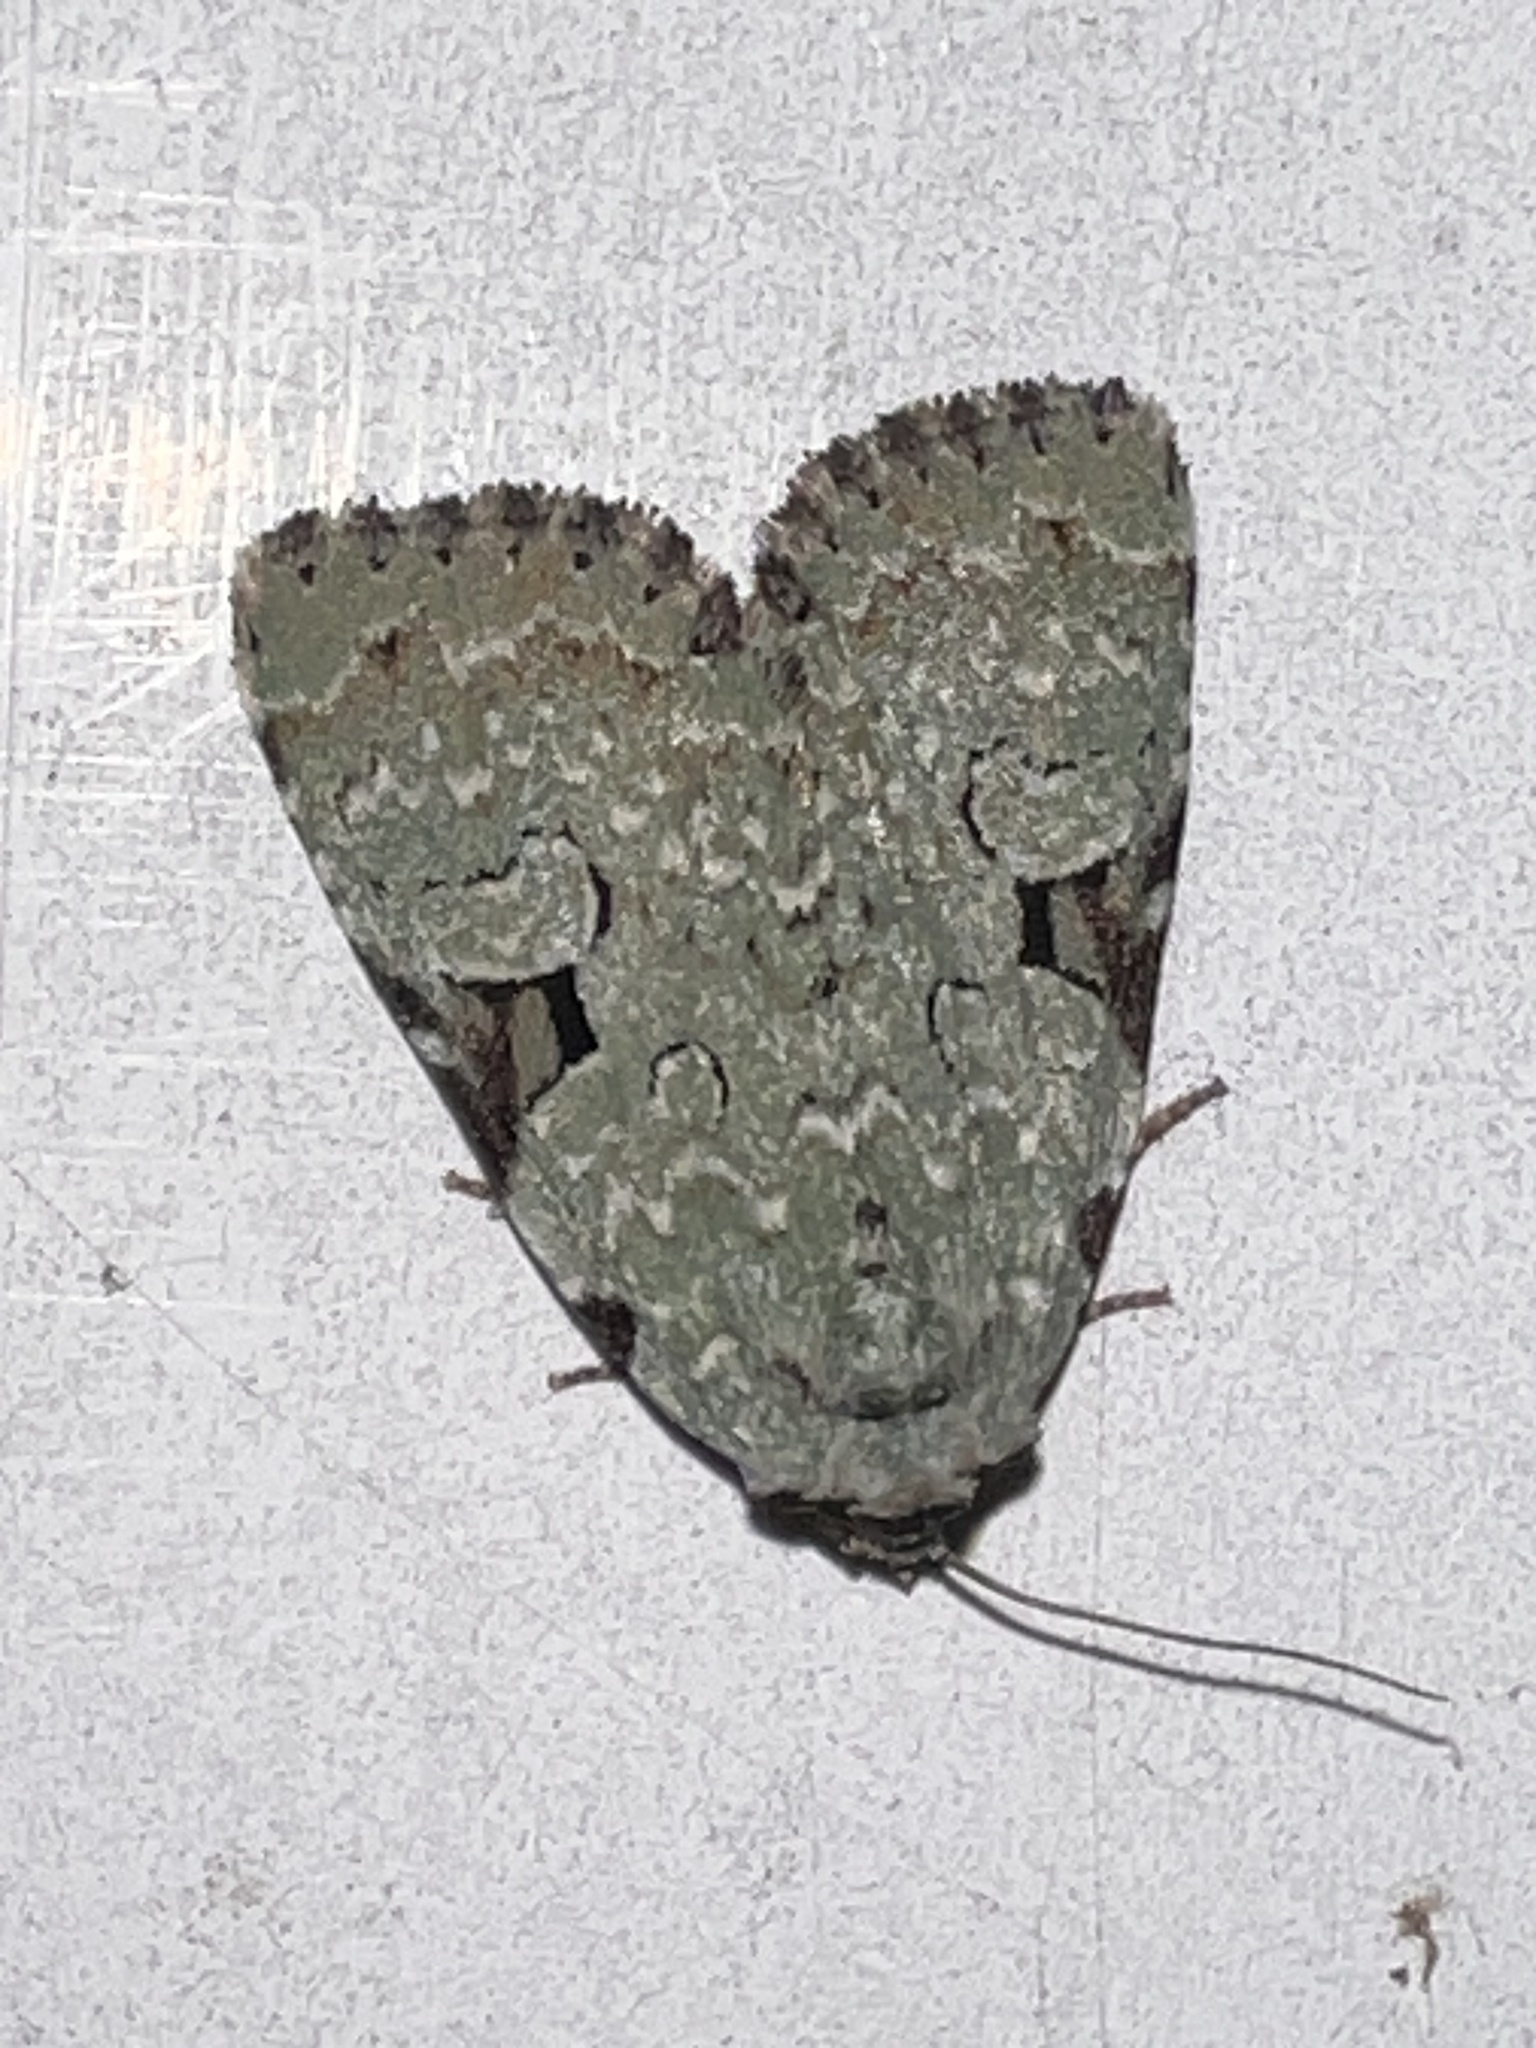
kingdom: Animalia
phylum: Arthropoda
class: Insecta
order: Lepidoptera
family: Noctuidae
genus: Leuconycta
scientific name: Leuconycta diphteroides
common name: Green leuconycta moth
